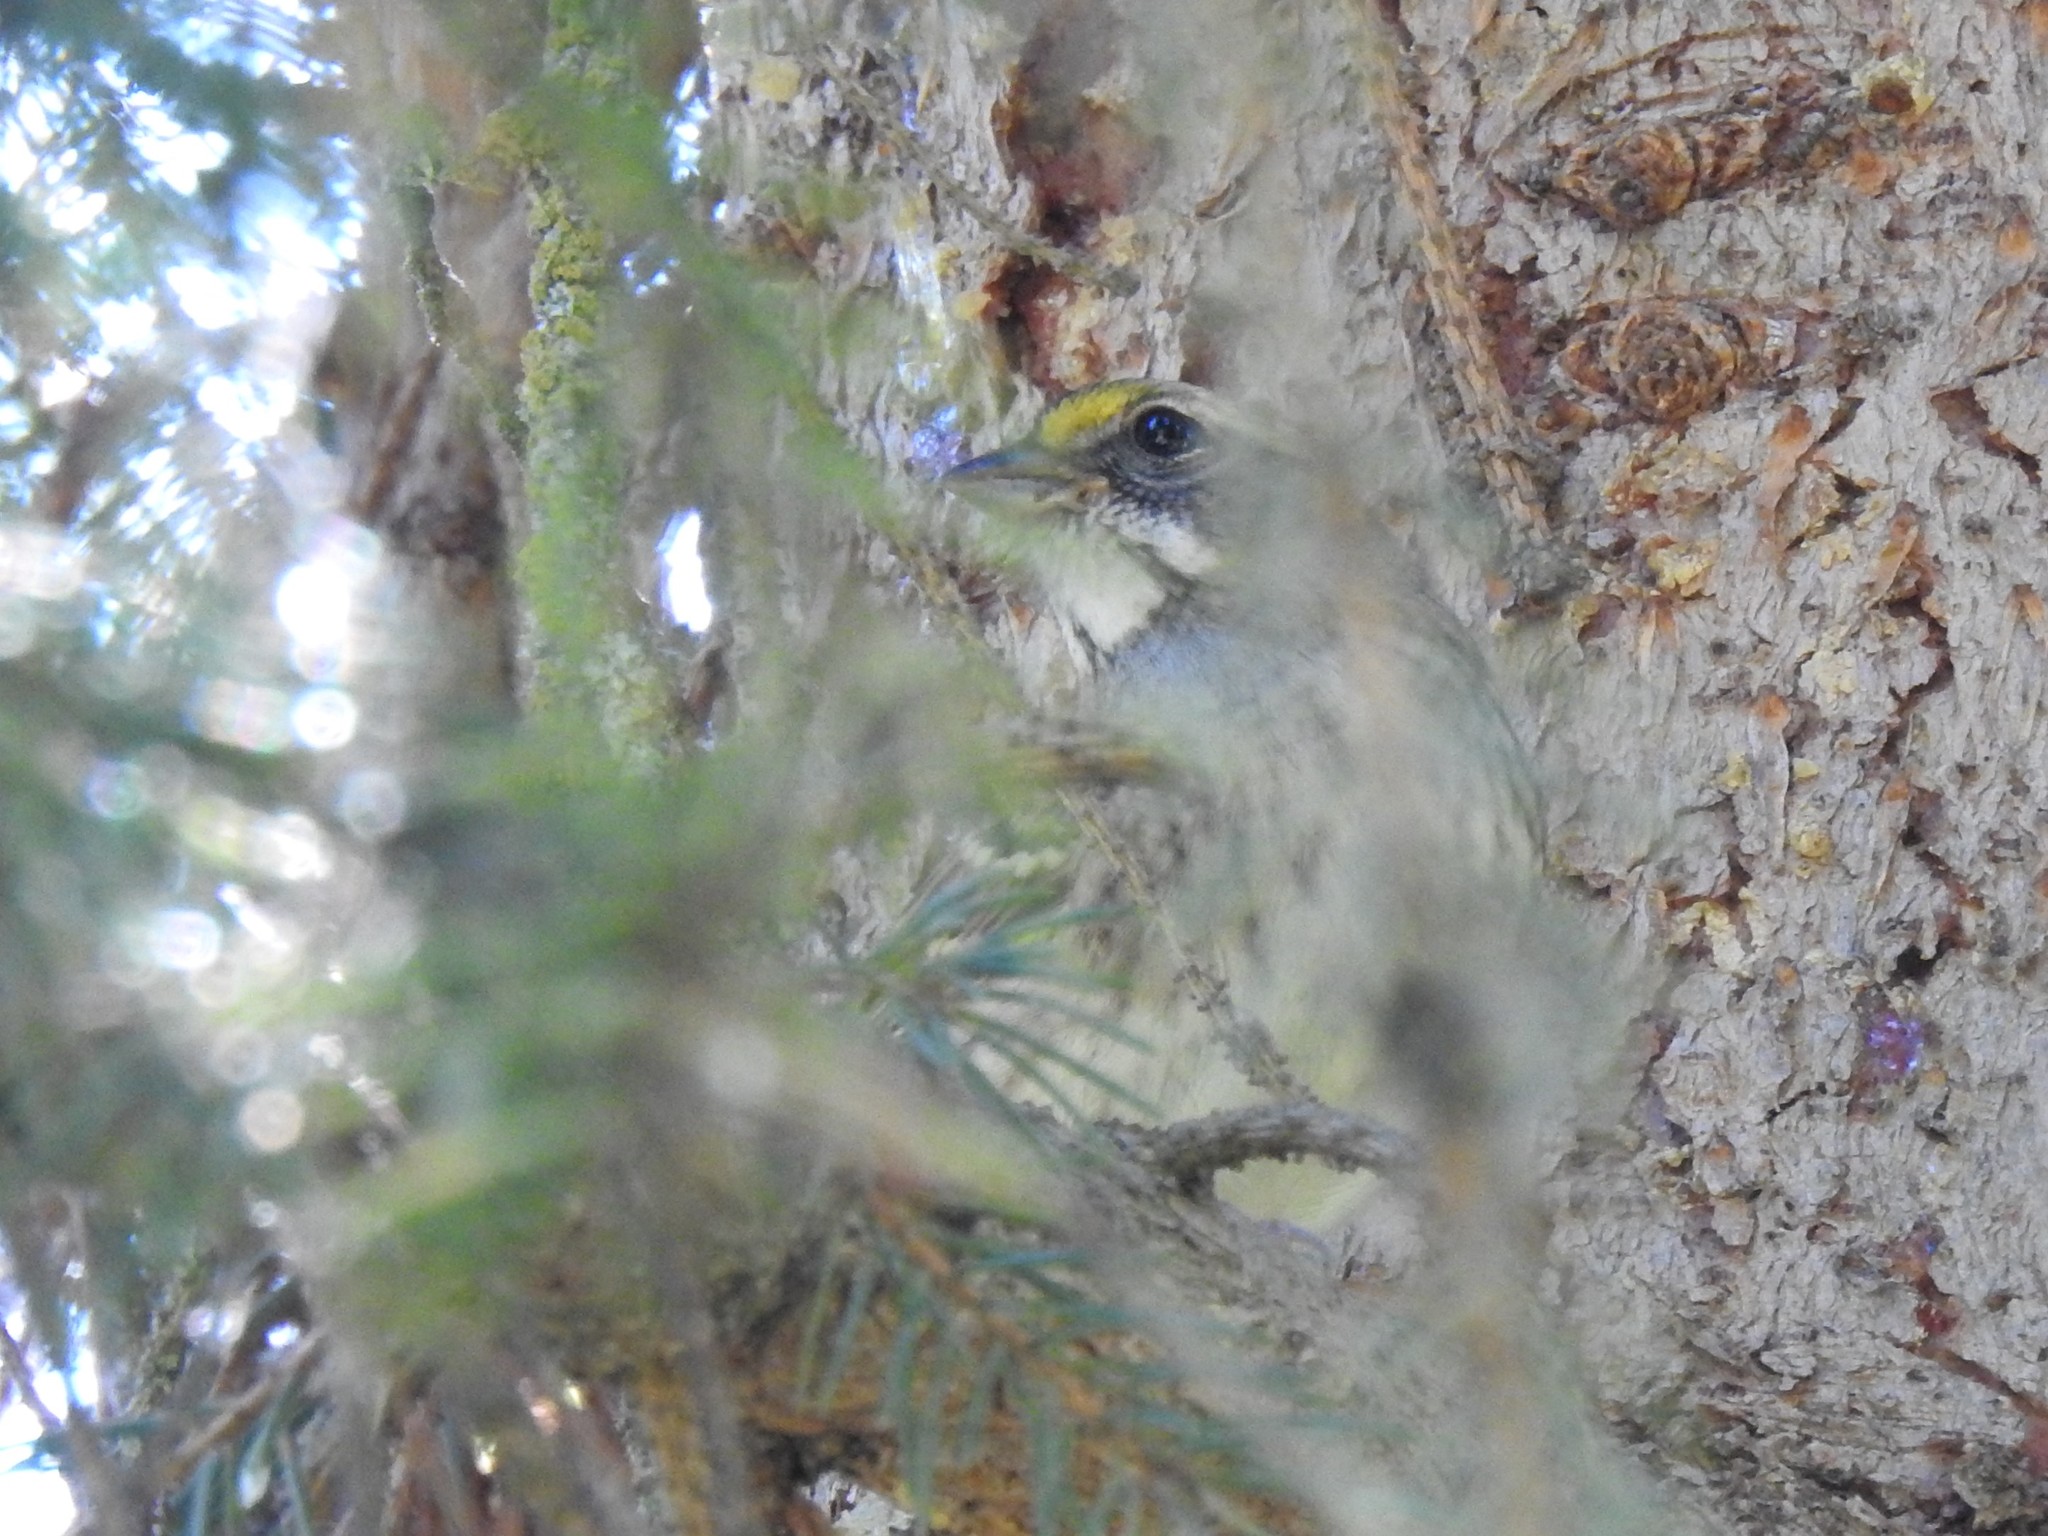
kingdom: Animalia
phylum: Chordata
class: Aves
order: Passeriformes
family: Passerellidae
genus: Zonotrichia
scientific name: Zonotrichia albicollis
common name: White-throated sparrow
